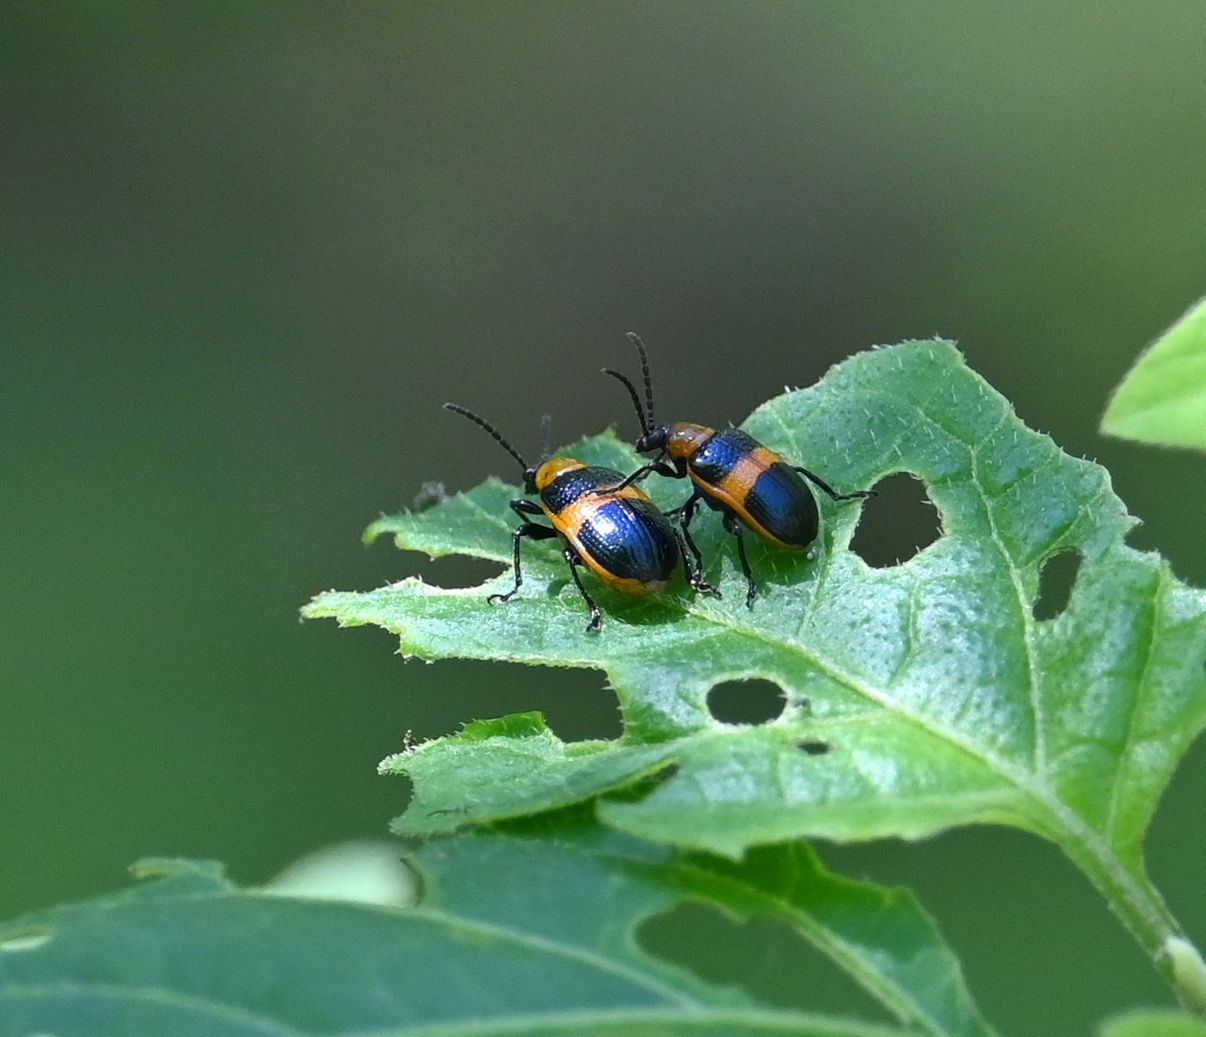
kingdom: Animalia
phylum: Arthropoda
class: Insecta
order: Coleoptera
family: Chrysomelidae
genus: Lema
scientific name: Lema solani
